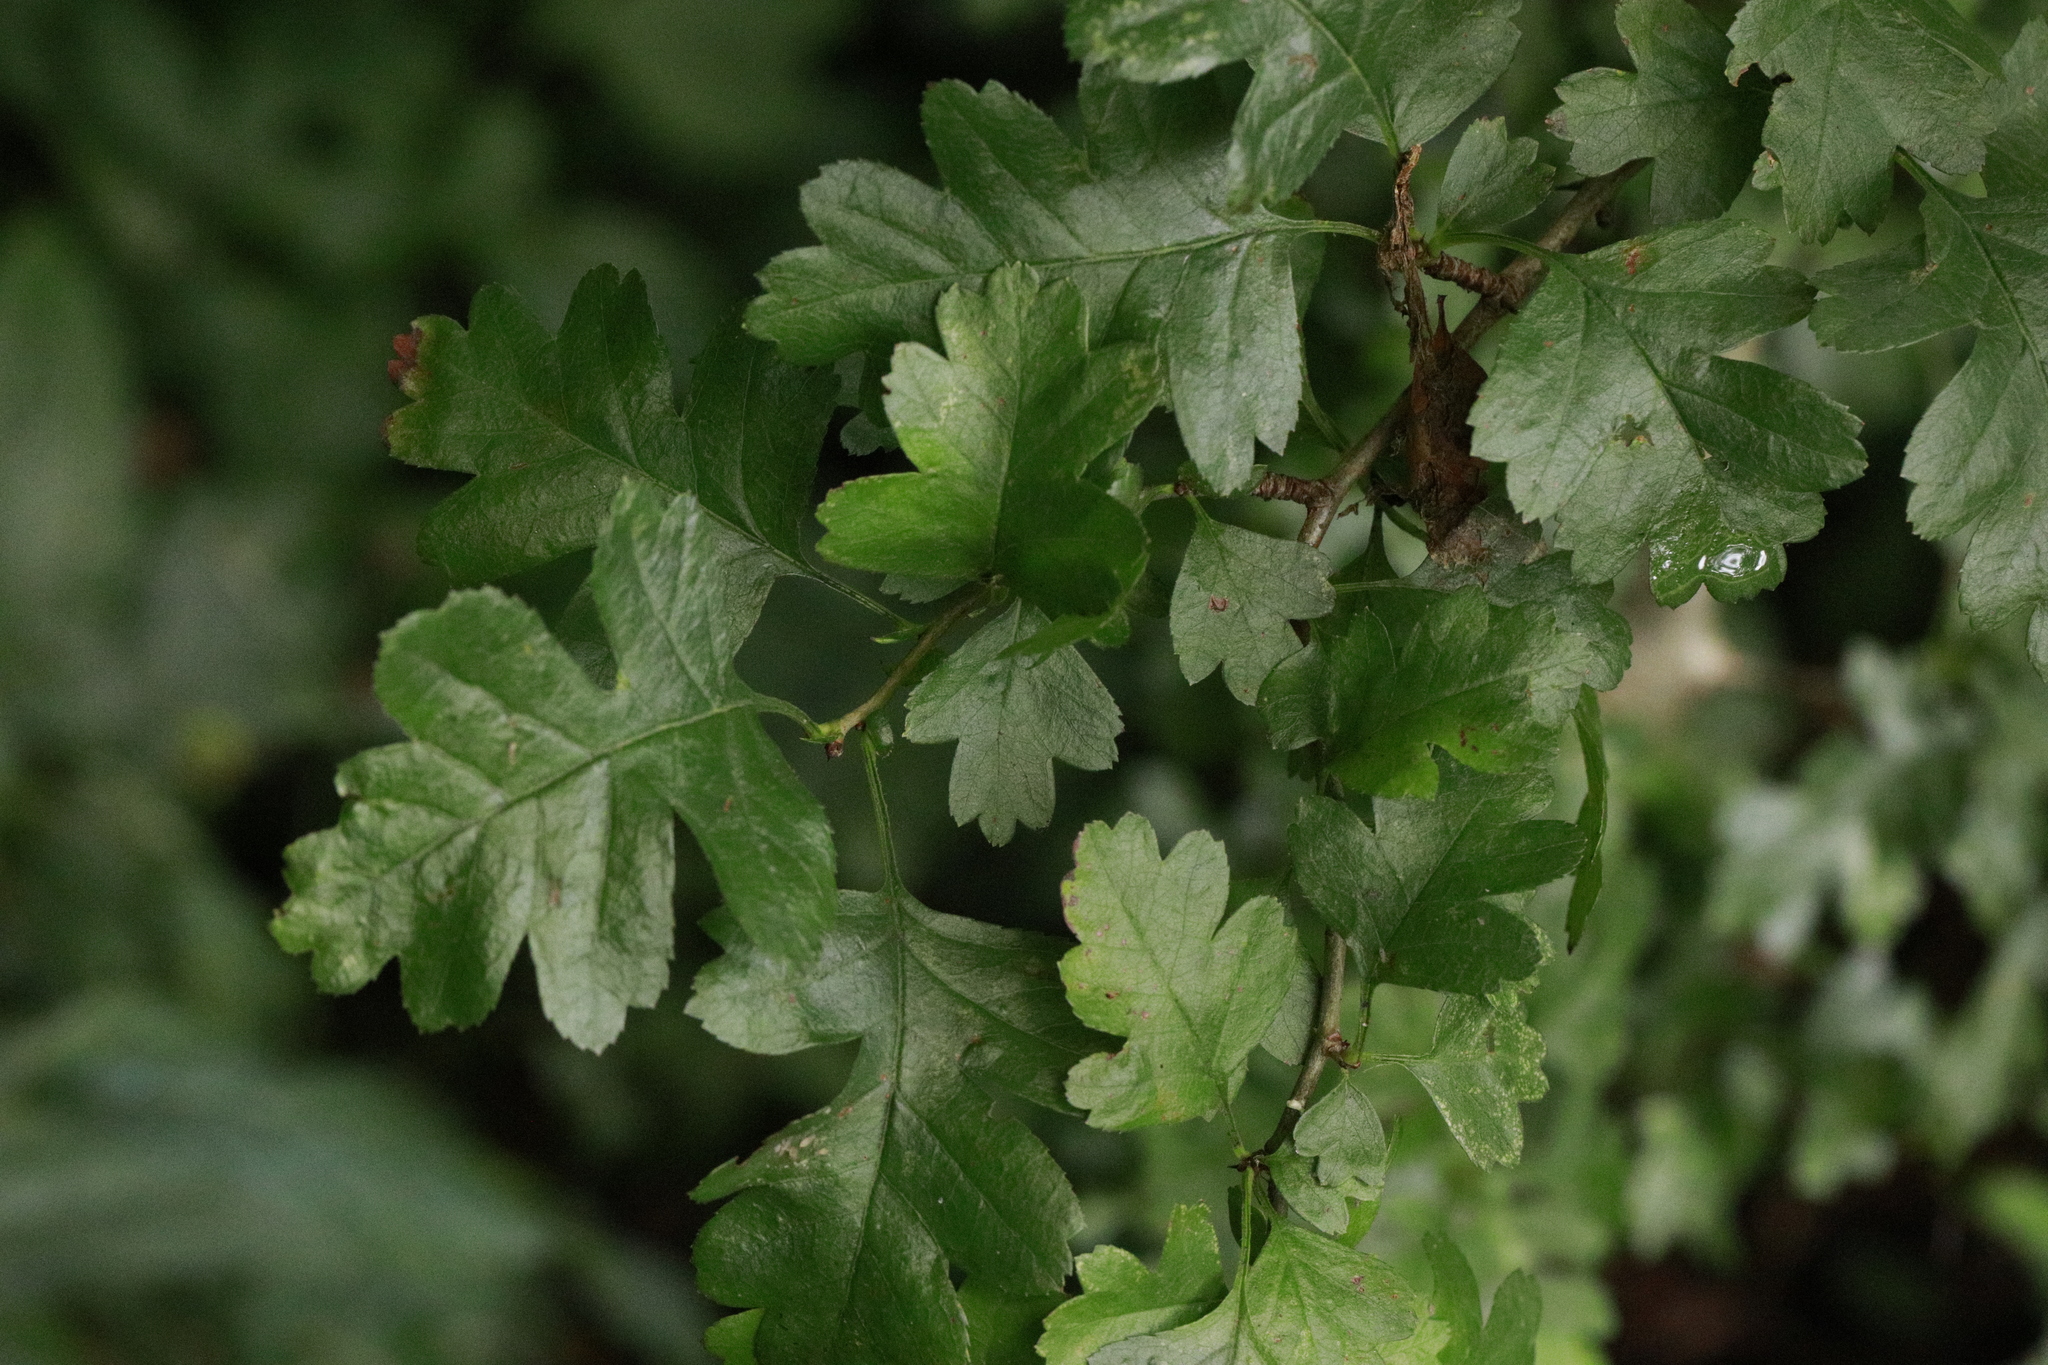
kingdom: Plantae
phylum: Tracheophyta
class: Magnoliopsida
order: Rosales
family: Rosaceae
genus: Crataegus
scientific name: Crataegus monogyna
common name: Hawthorn
